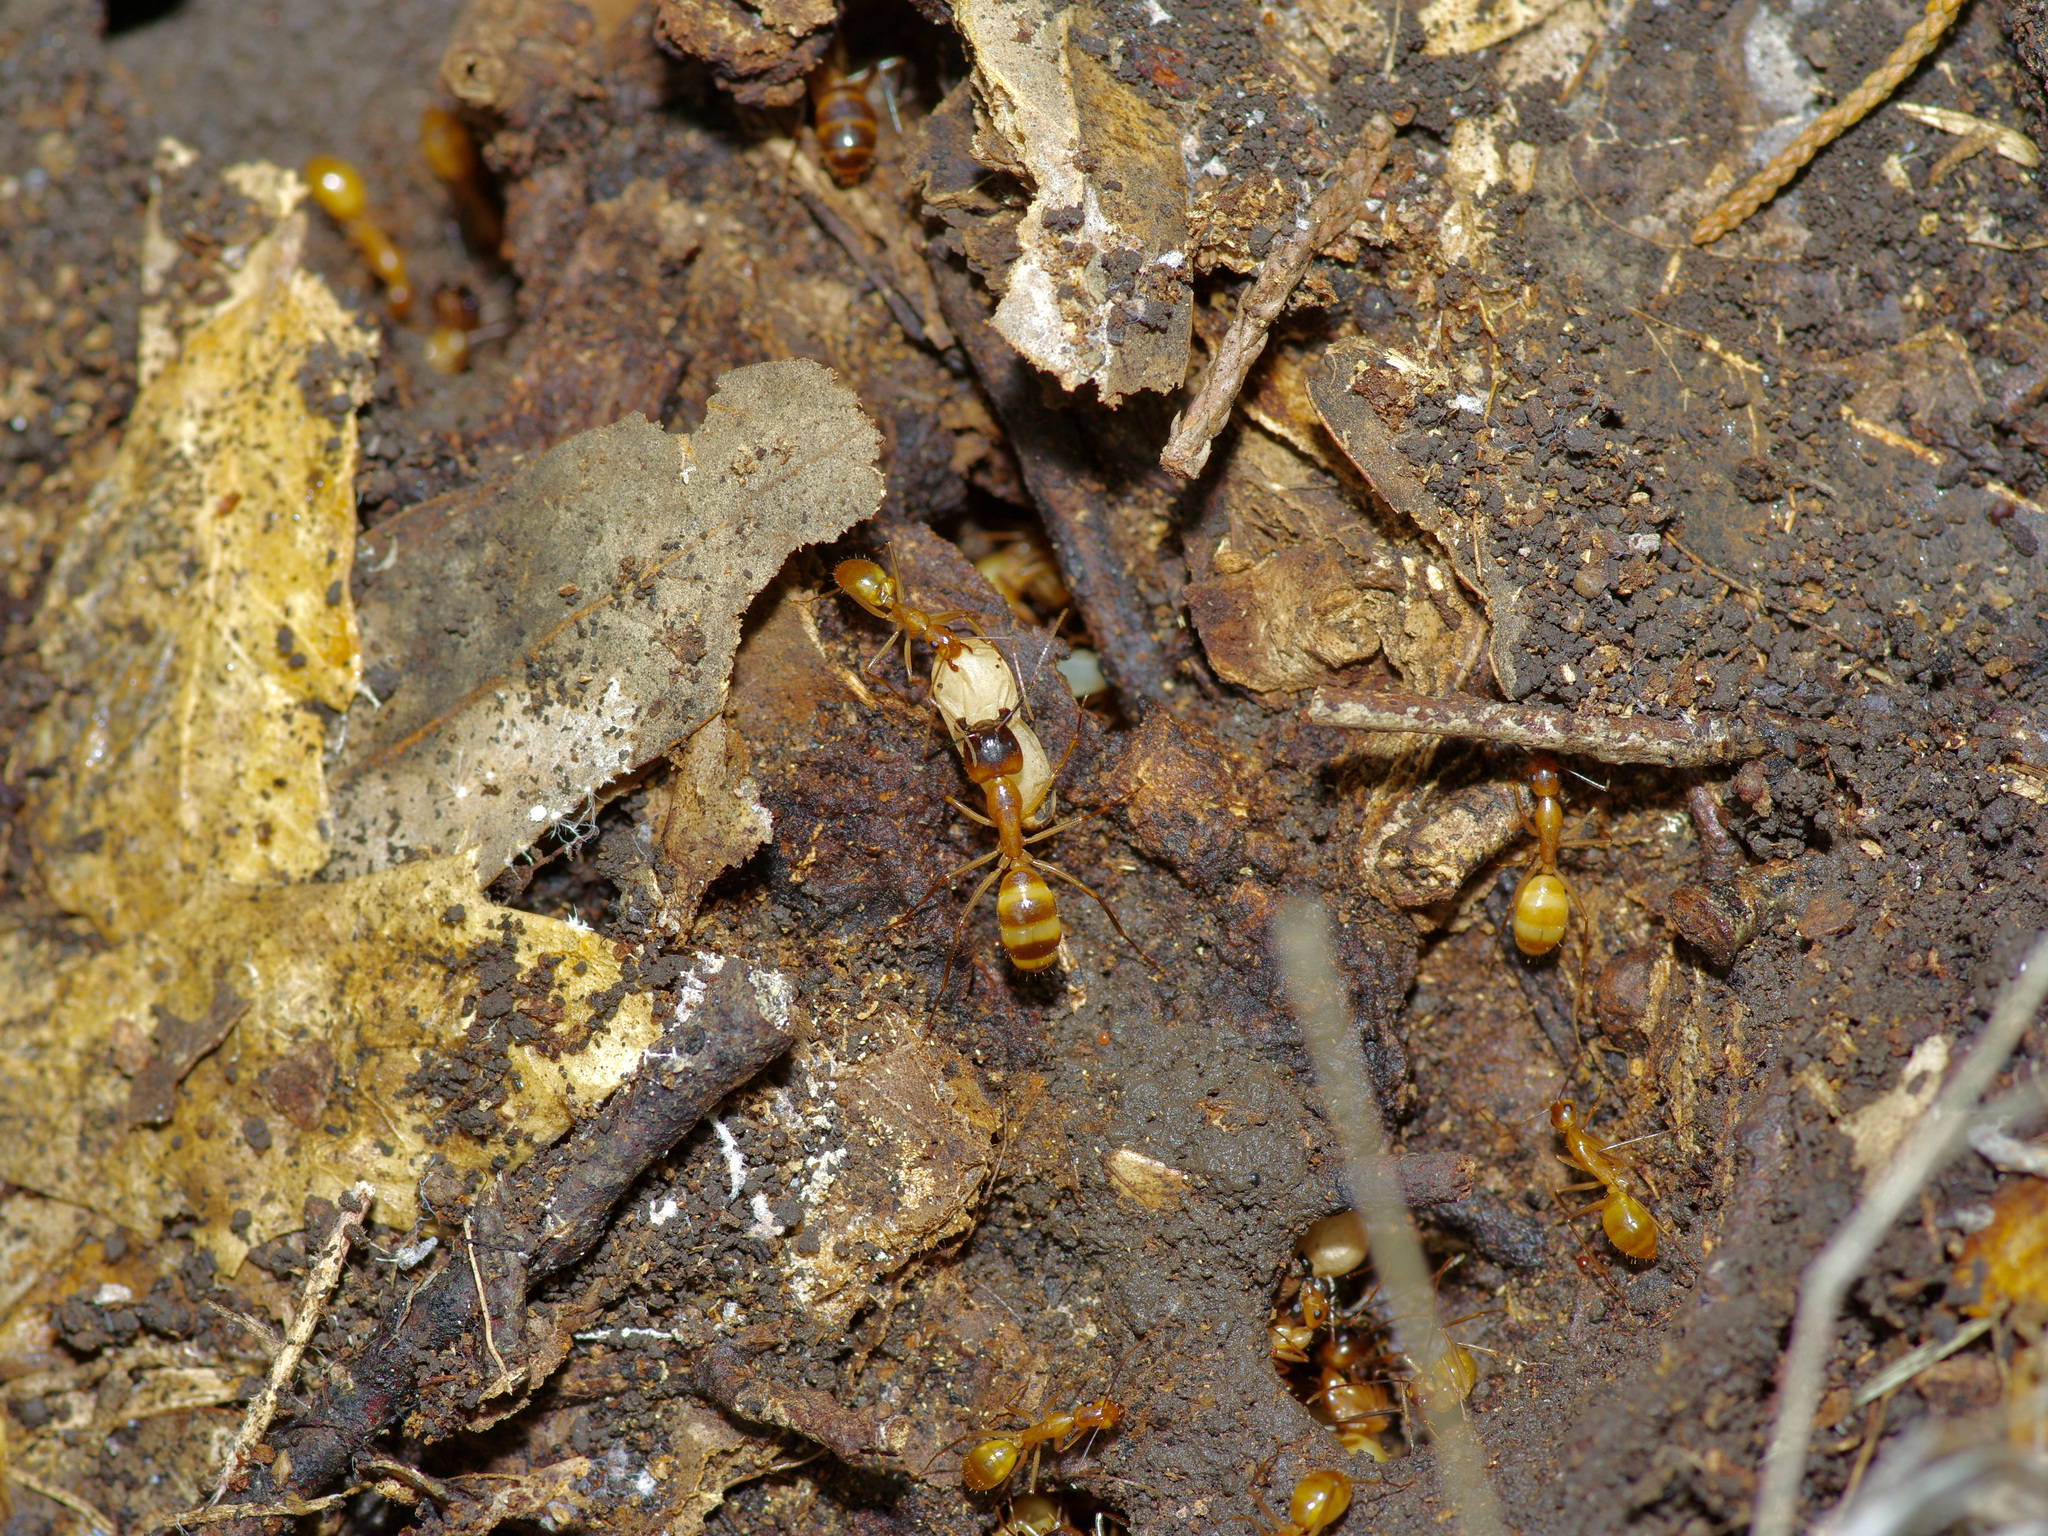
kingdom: Animalia
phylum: Arthropoda
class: Insecta
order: Hymenoptera
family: Formicidae
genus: Camponotus
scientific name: Camponotus festinatus
